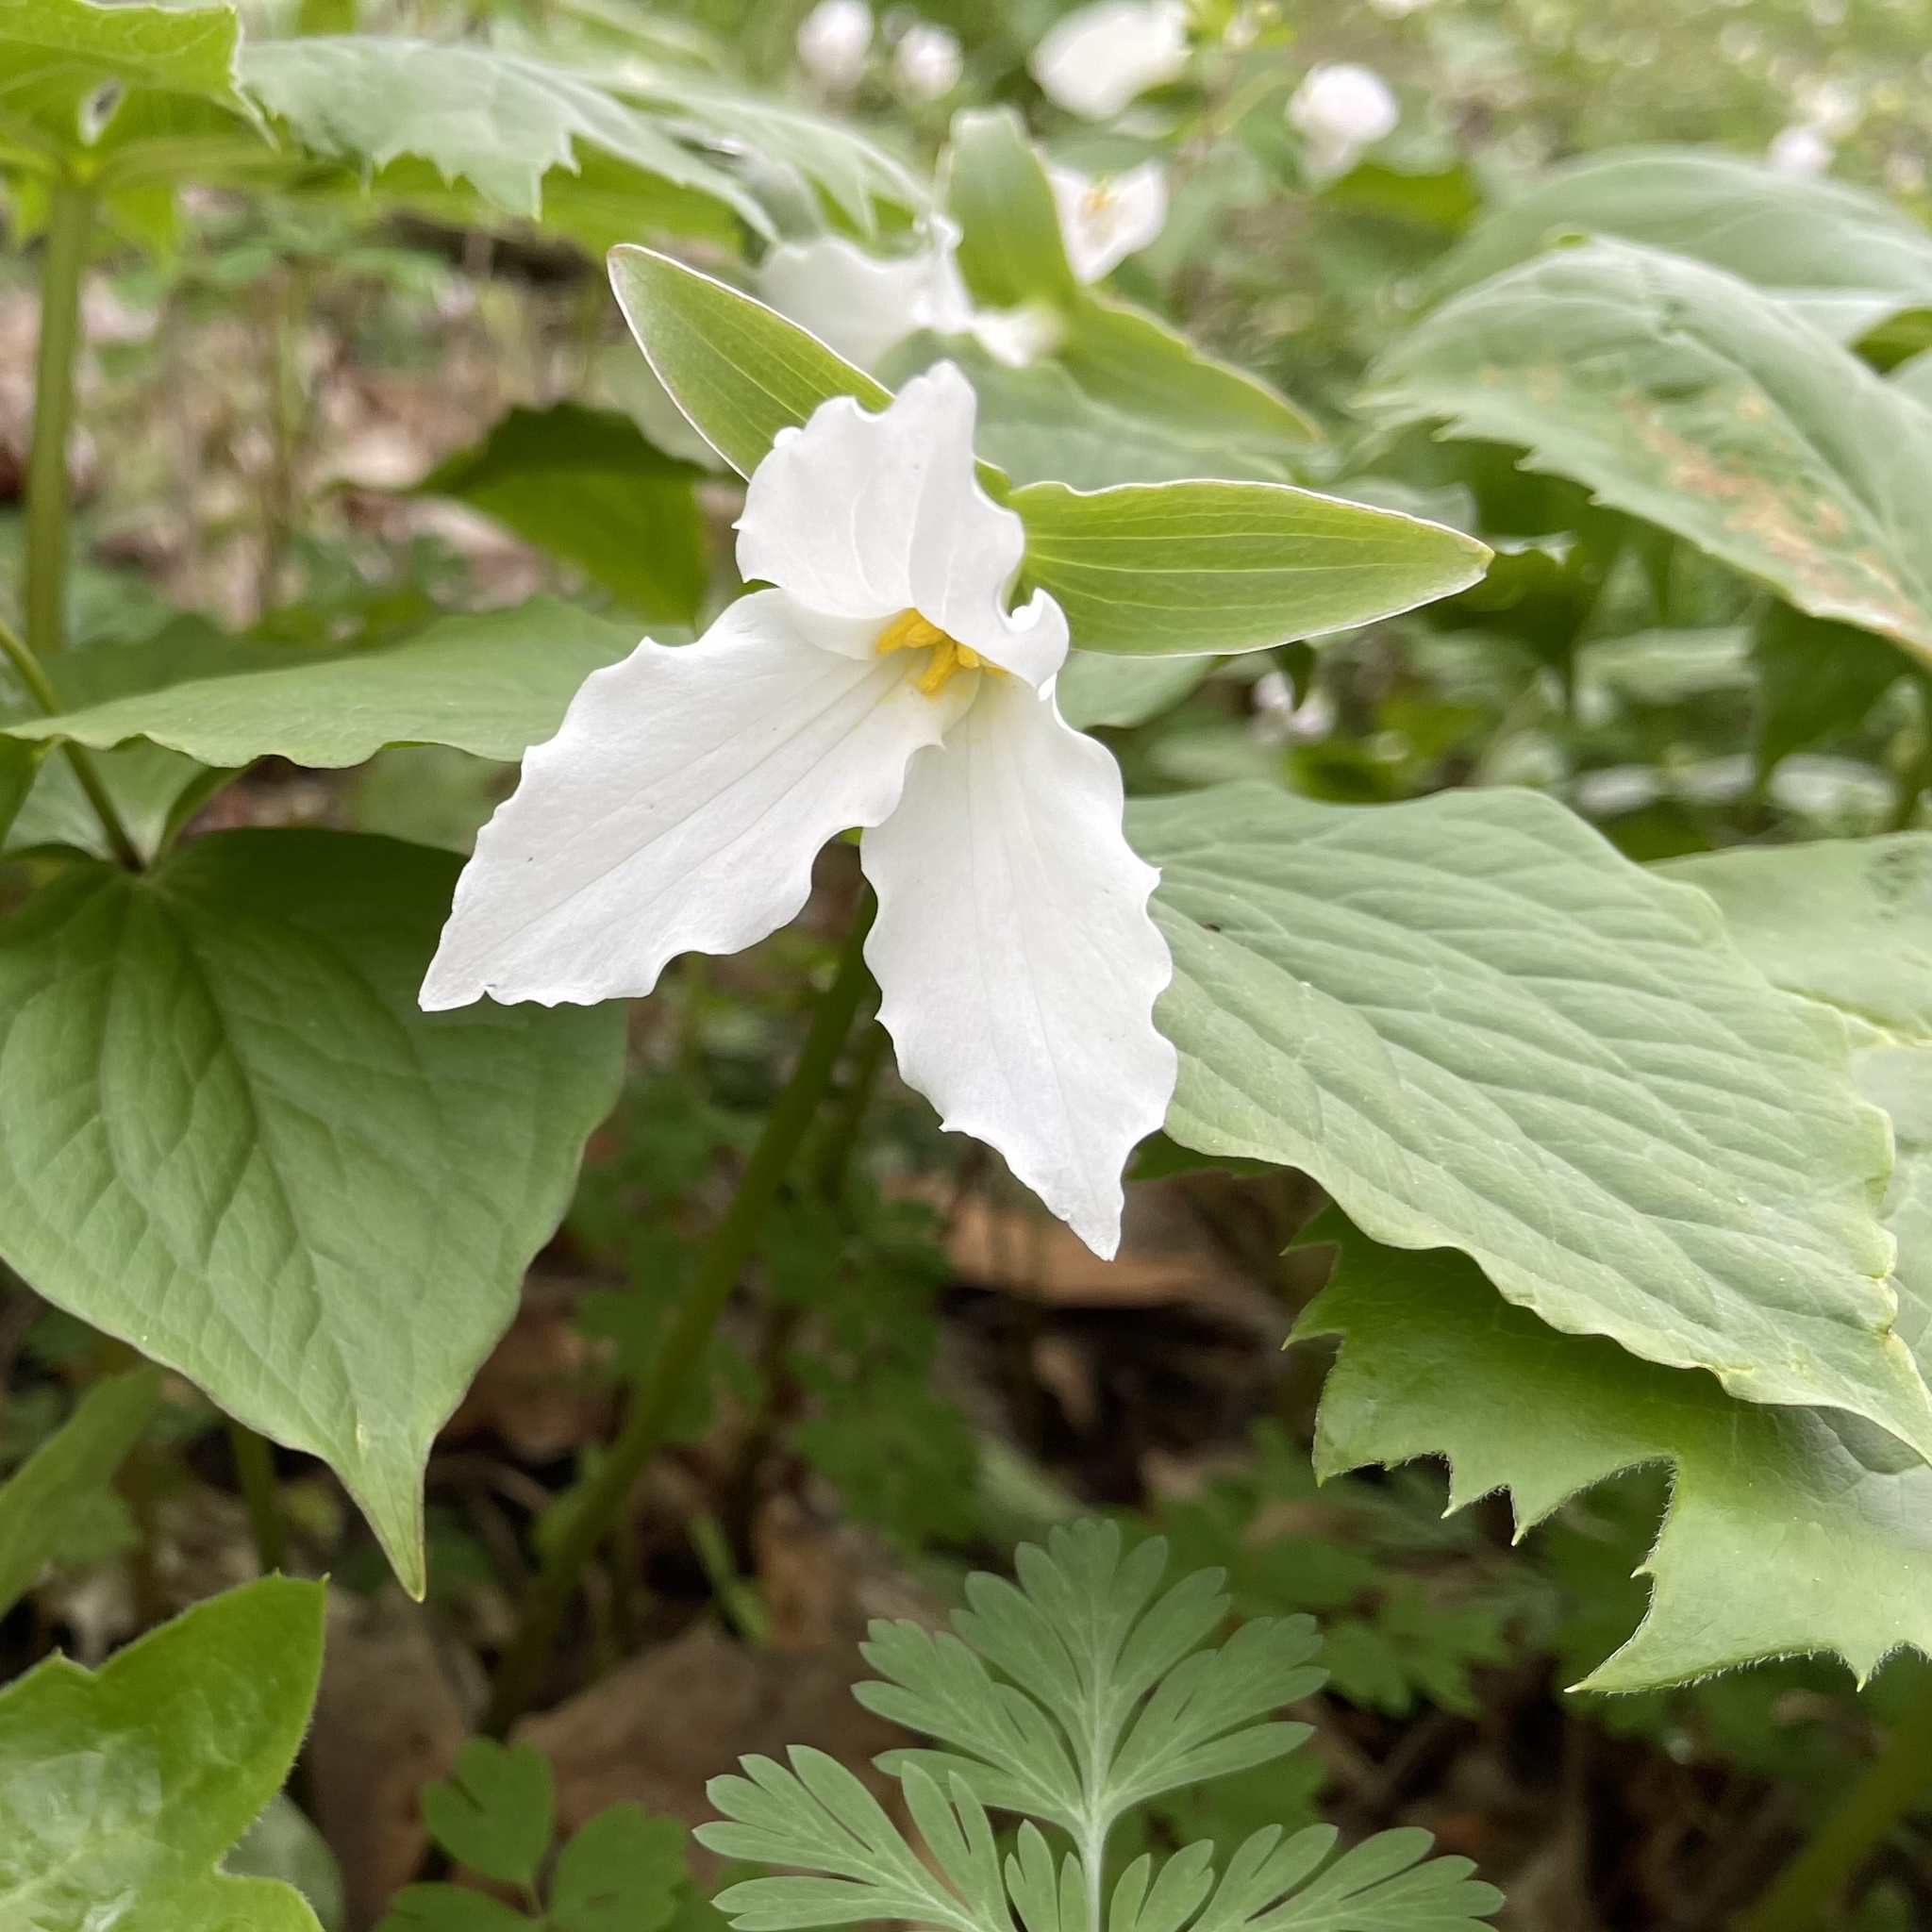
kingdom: Plantae
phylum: Tracheophyta
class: Liliopsida
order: Liliales
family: Melanthiaceae
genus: Trillium
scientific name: Trillium grandiflorum
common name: Great white trillium
